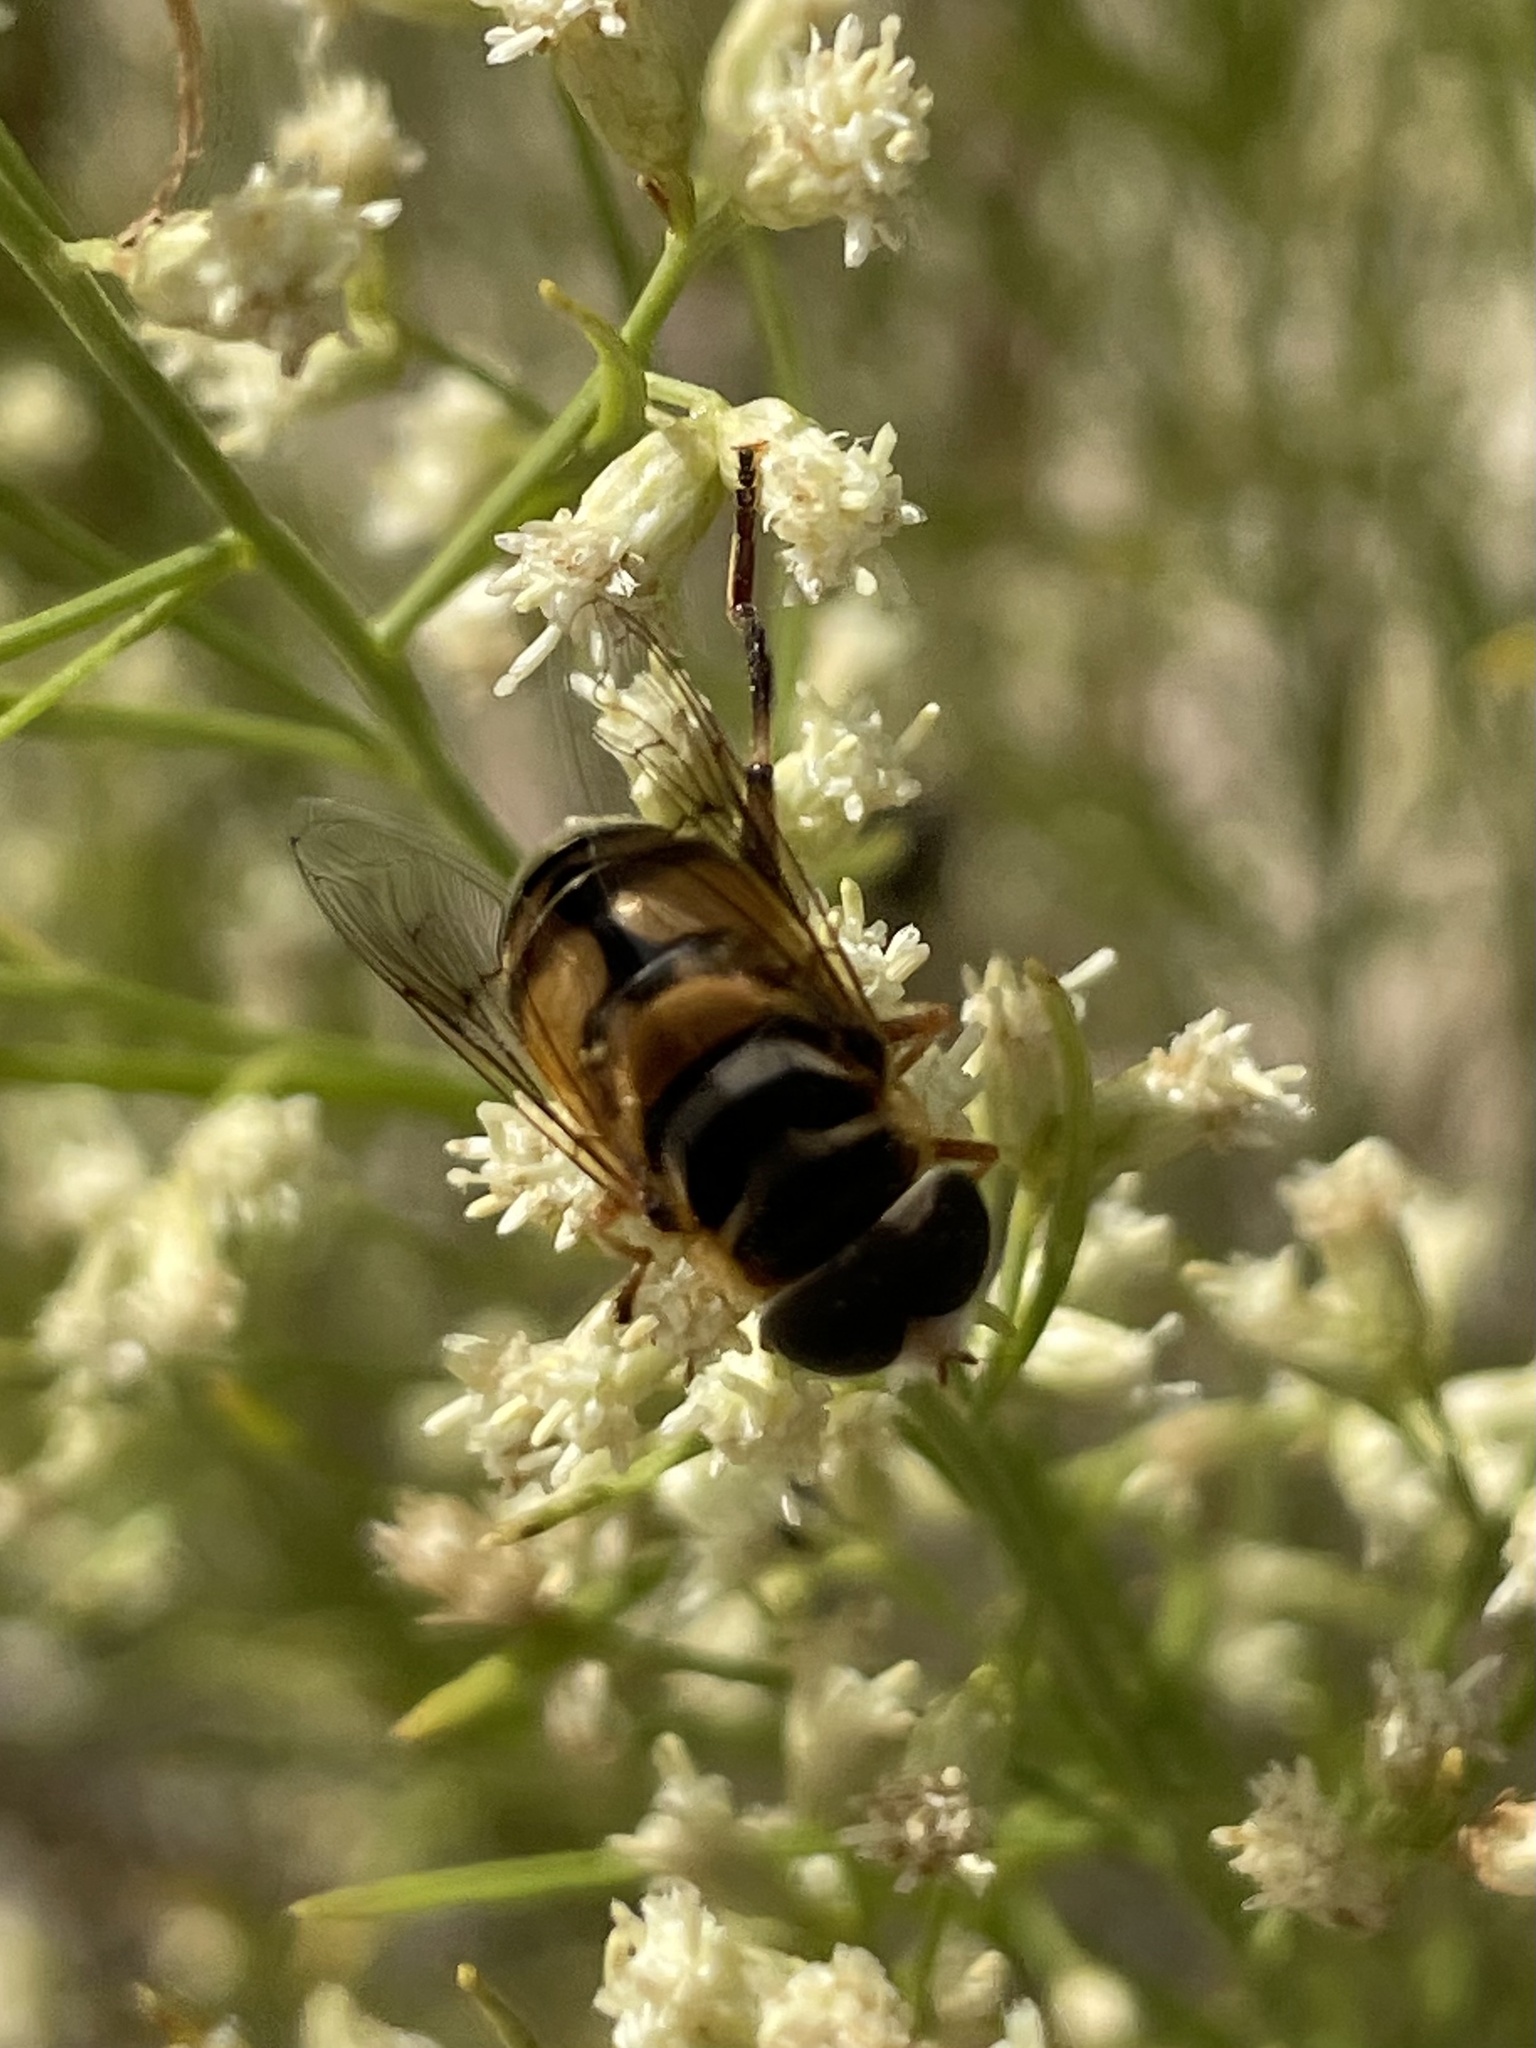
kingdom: Animalia
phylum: Arthropoda
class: Insecta
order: Diptera
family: Syrphidae
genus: Palpada
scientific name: Palpada vinetorum
